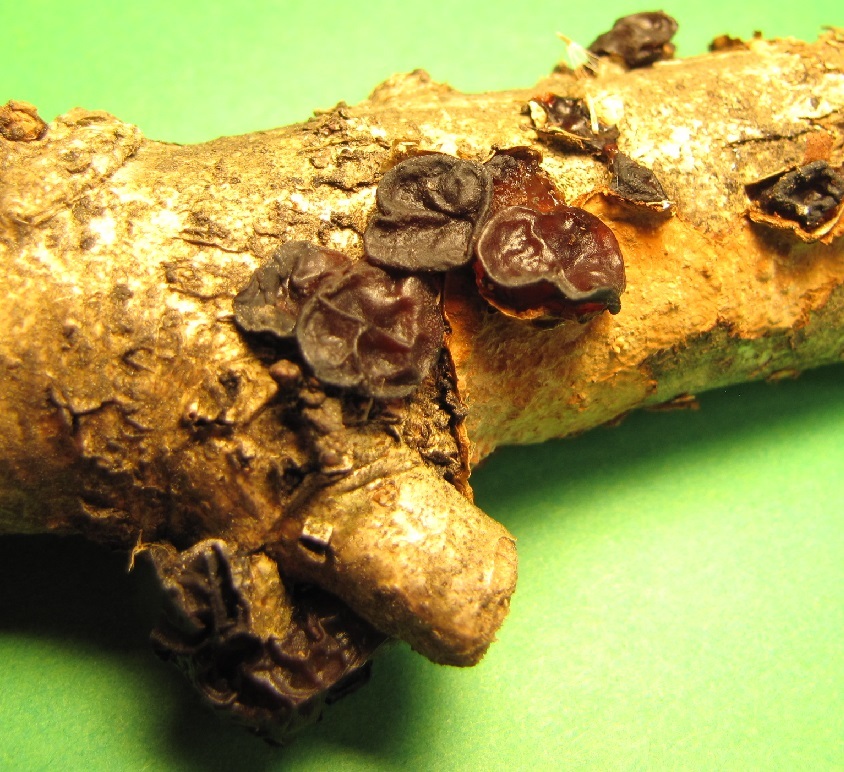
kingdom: Fungi
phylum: Basidiomycota
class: Agaricomycetes
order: Auriculariales
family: Auriculariaceae
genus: Exidia
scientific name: Exidia
